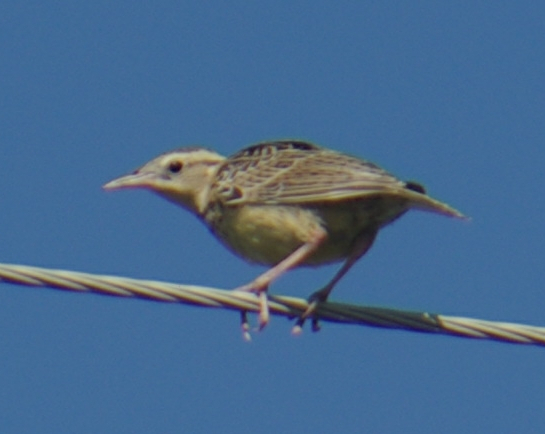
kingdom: Animalia
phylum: Chordata
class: Aves
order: Passeriformes
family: Icteridae
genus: Sturnella
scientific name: Sturnella neglecta
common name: Western meadowlark
